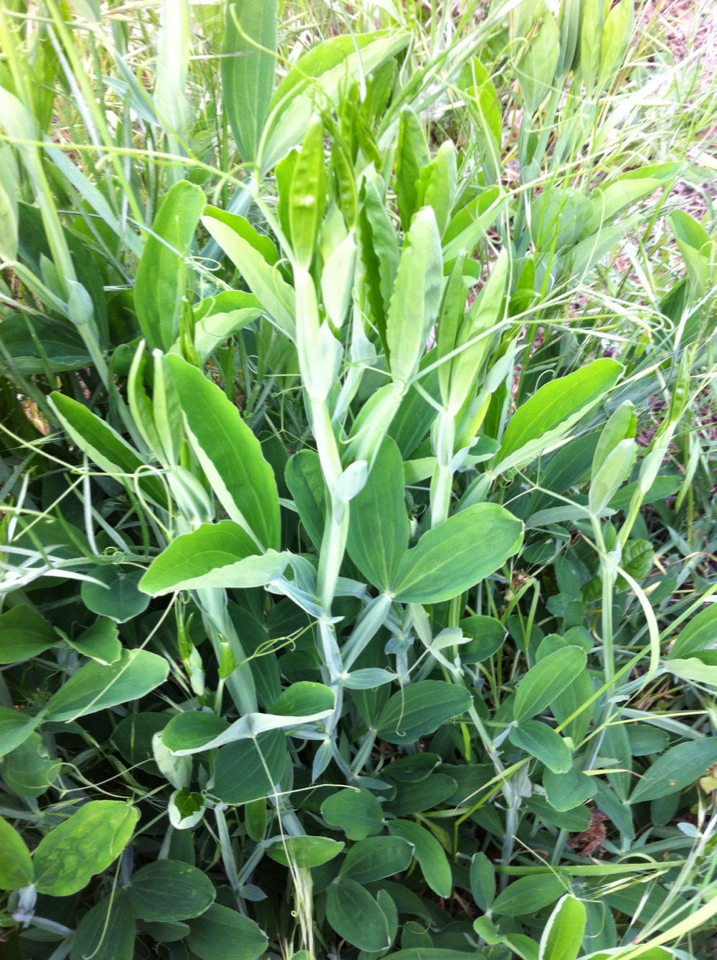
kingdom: Plantae
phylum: Tracheophyta
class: Magnoliopsida
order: Fabales
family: Fabaceae
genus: Lathyrus
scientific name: Lathyrus latifolius
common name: Perennial pea
